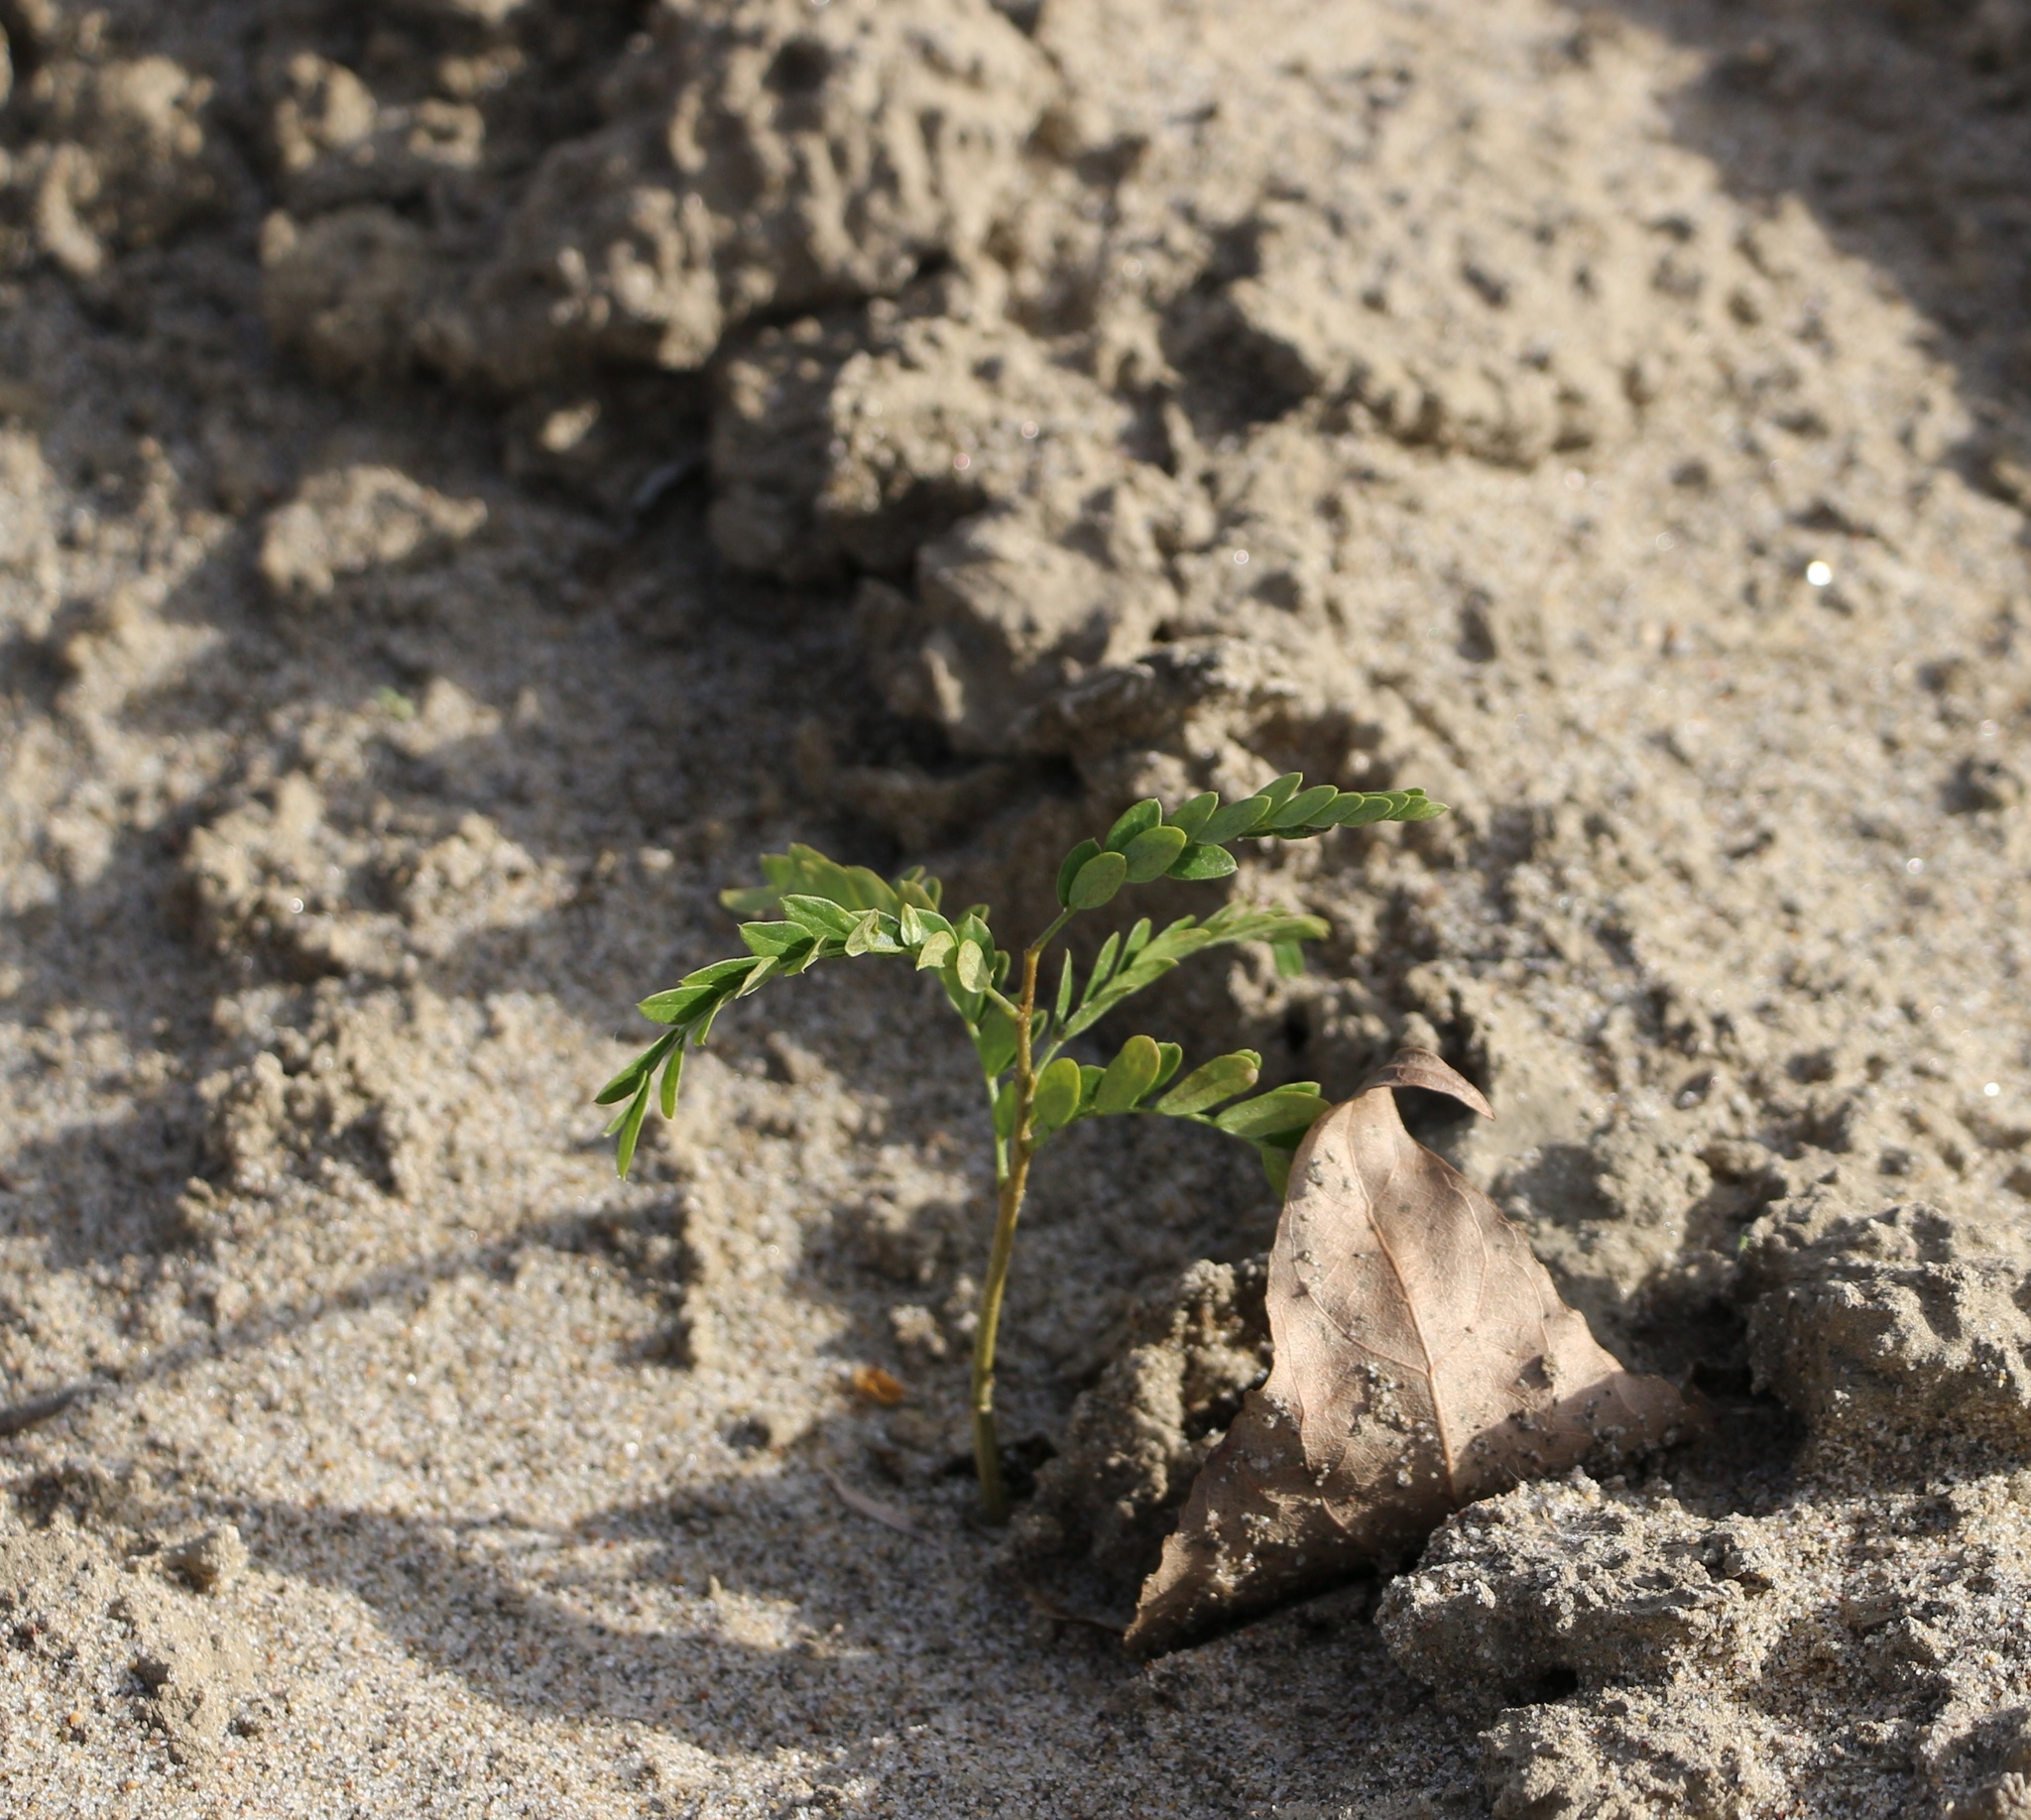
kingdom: Plantae
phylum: Tracheophyta
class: Magnoliopsida
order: Fabales
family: Fabaceae
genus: Gleditsia
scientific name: Gleditsia triacanthos
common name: Common honeylocust
